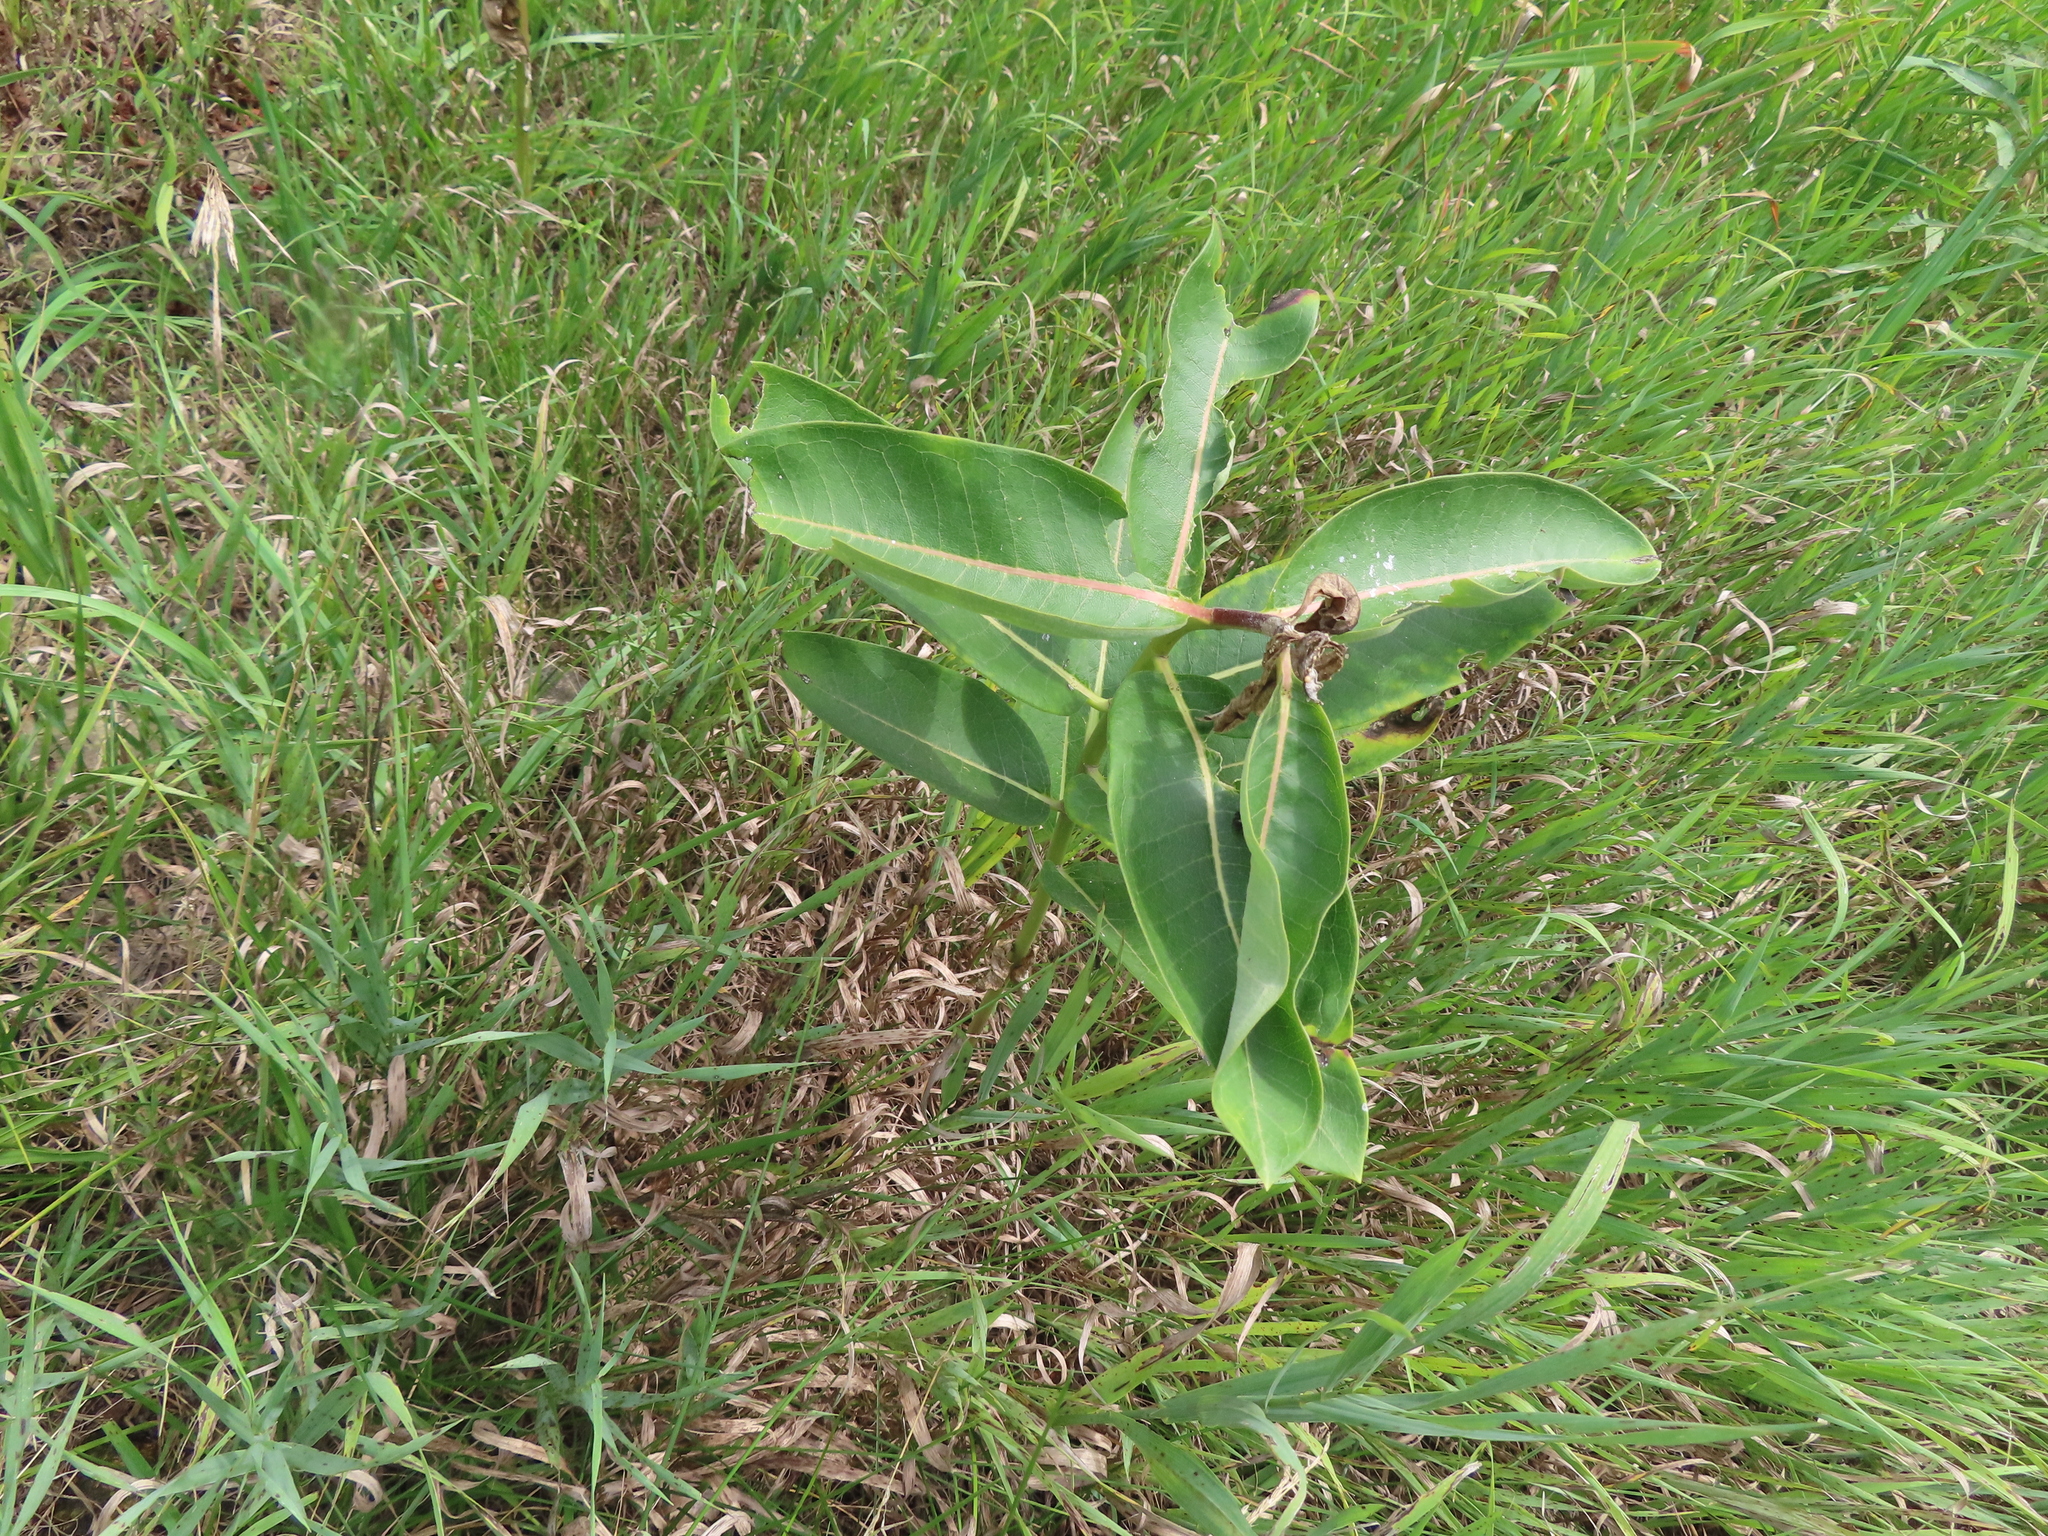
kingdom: Plantae
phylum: Tracheophyta
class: Magnoliopsida
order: Gentianales
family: Apocynaceae
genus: Asclepias
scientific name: Asclepias syriaca
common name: Common milkweed
